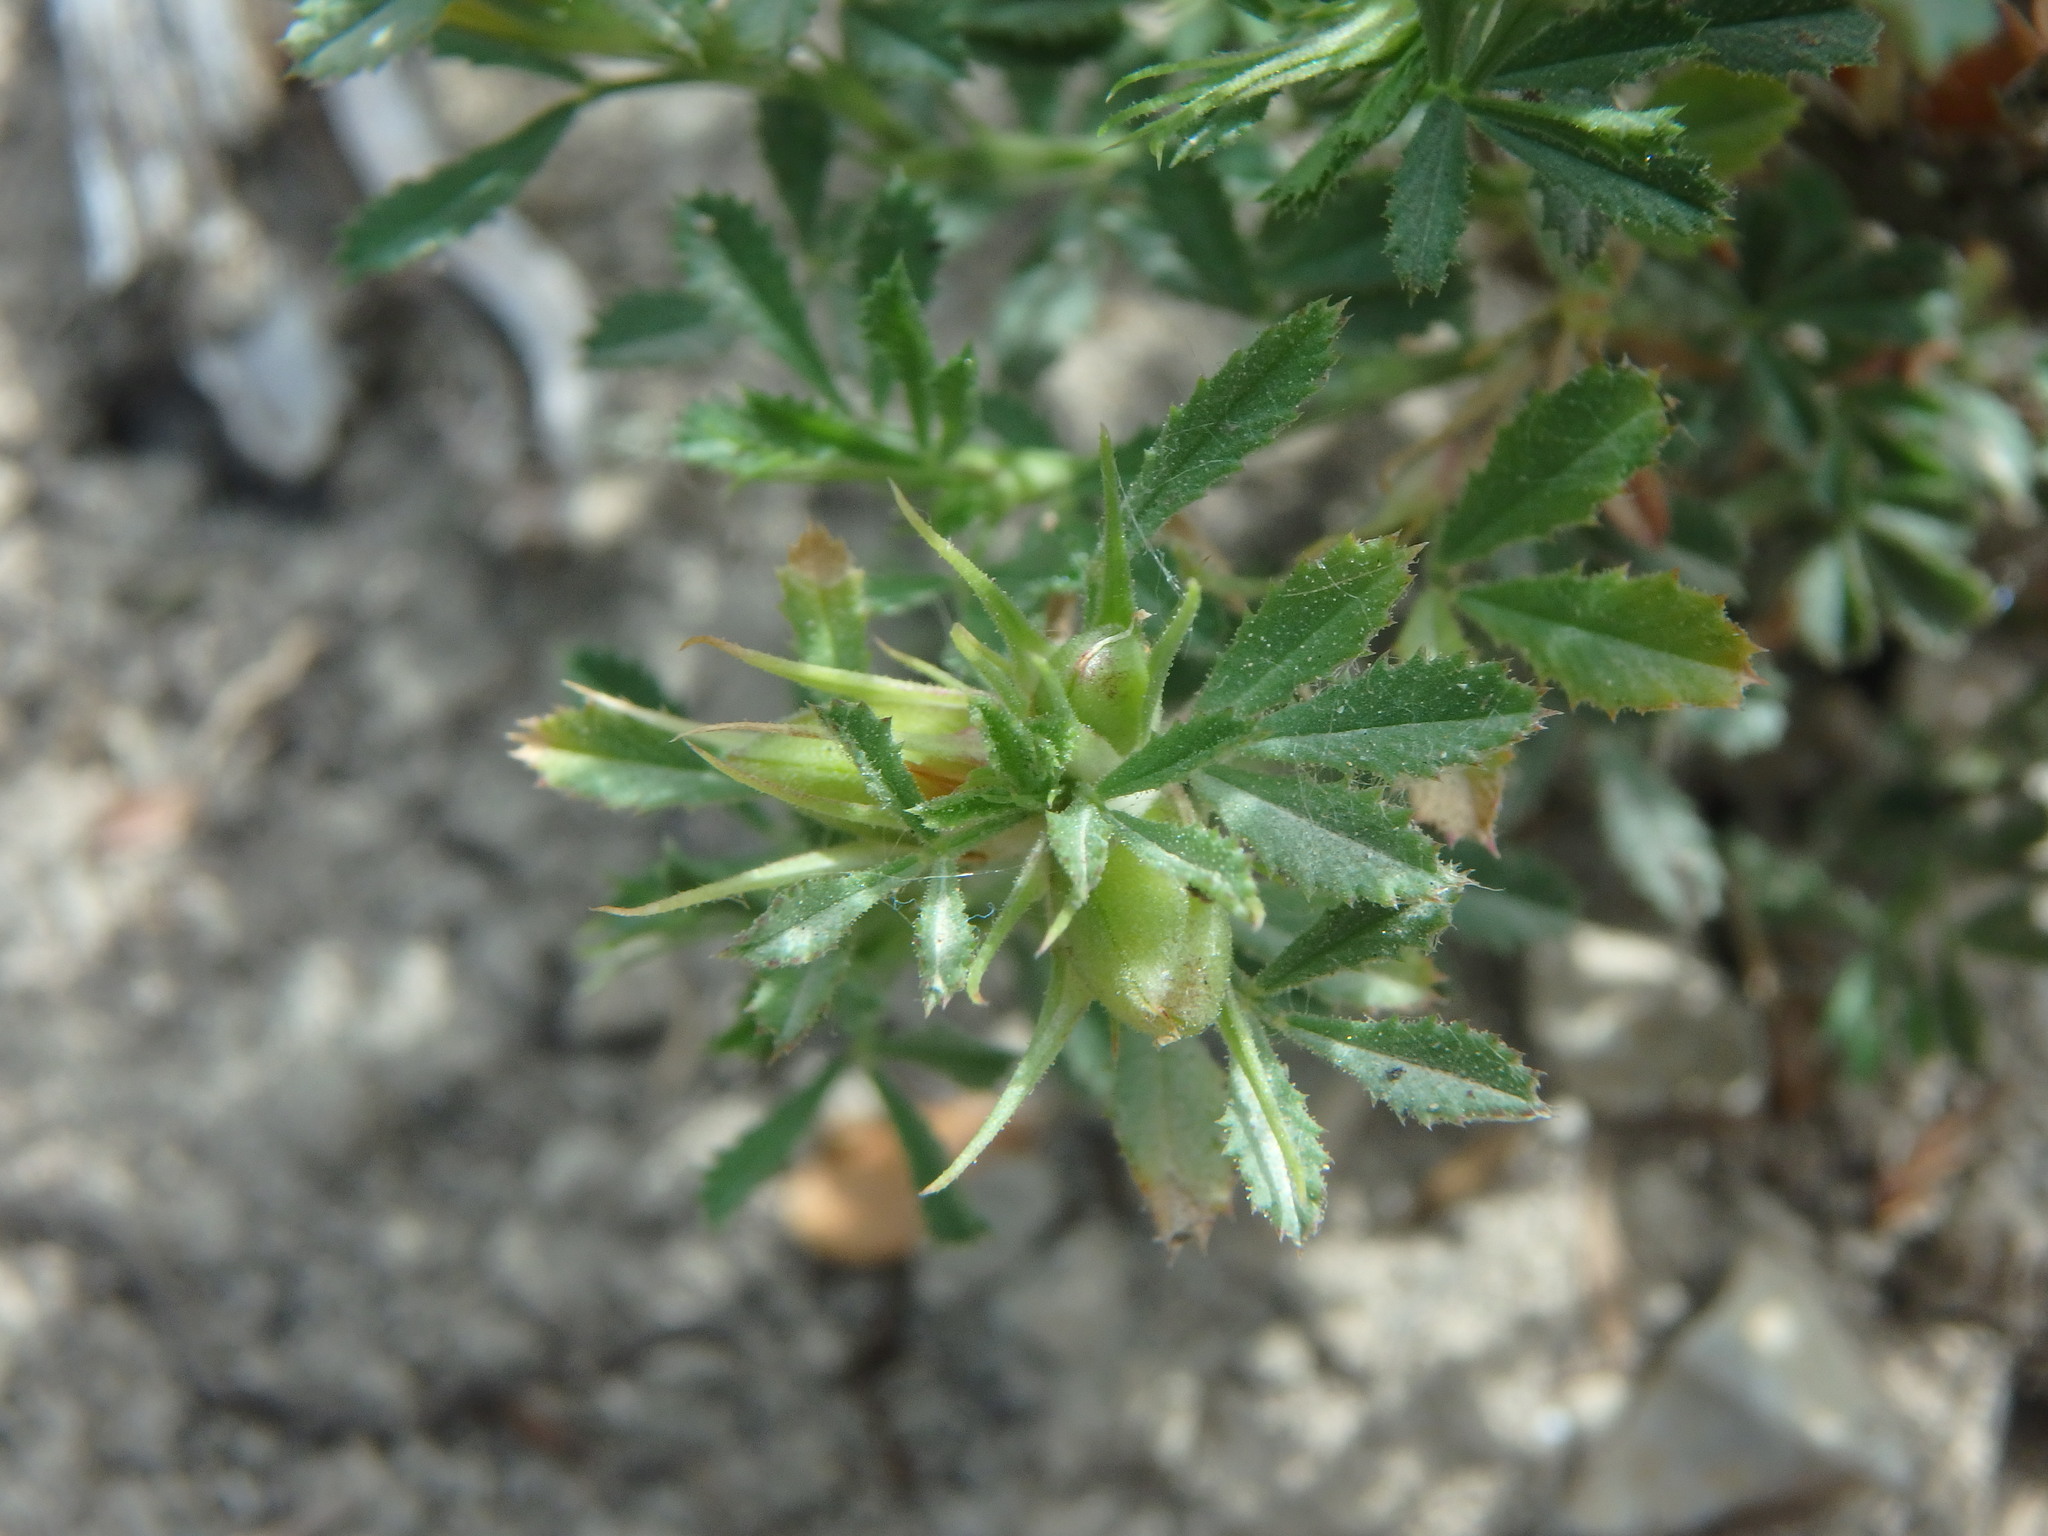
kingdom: Plantae
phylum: Tracheophyta
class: Magnoliopsida
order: Fabales
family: Fabaceae
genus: Ononis
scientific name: Ononis minutissima
